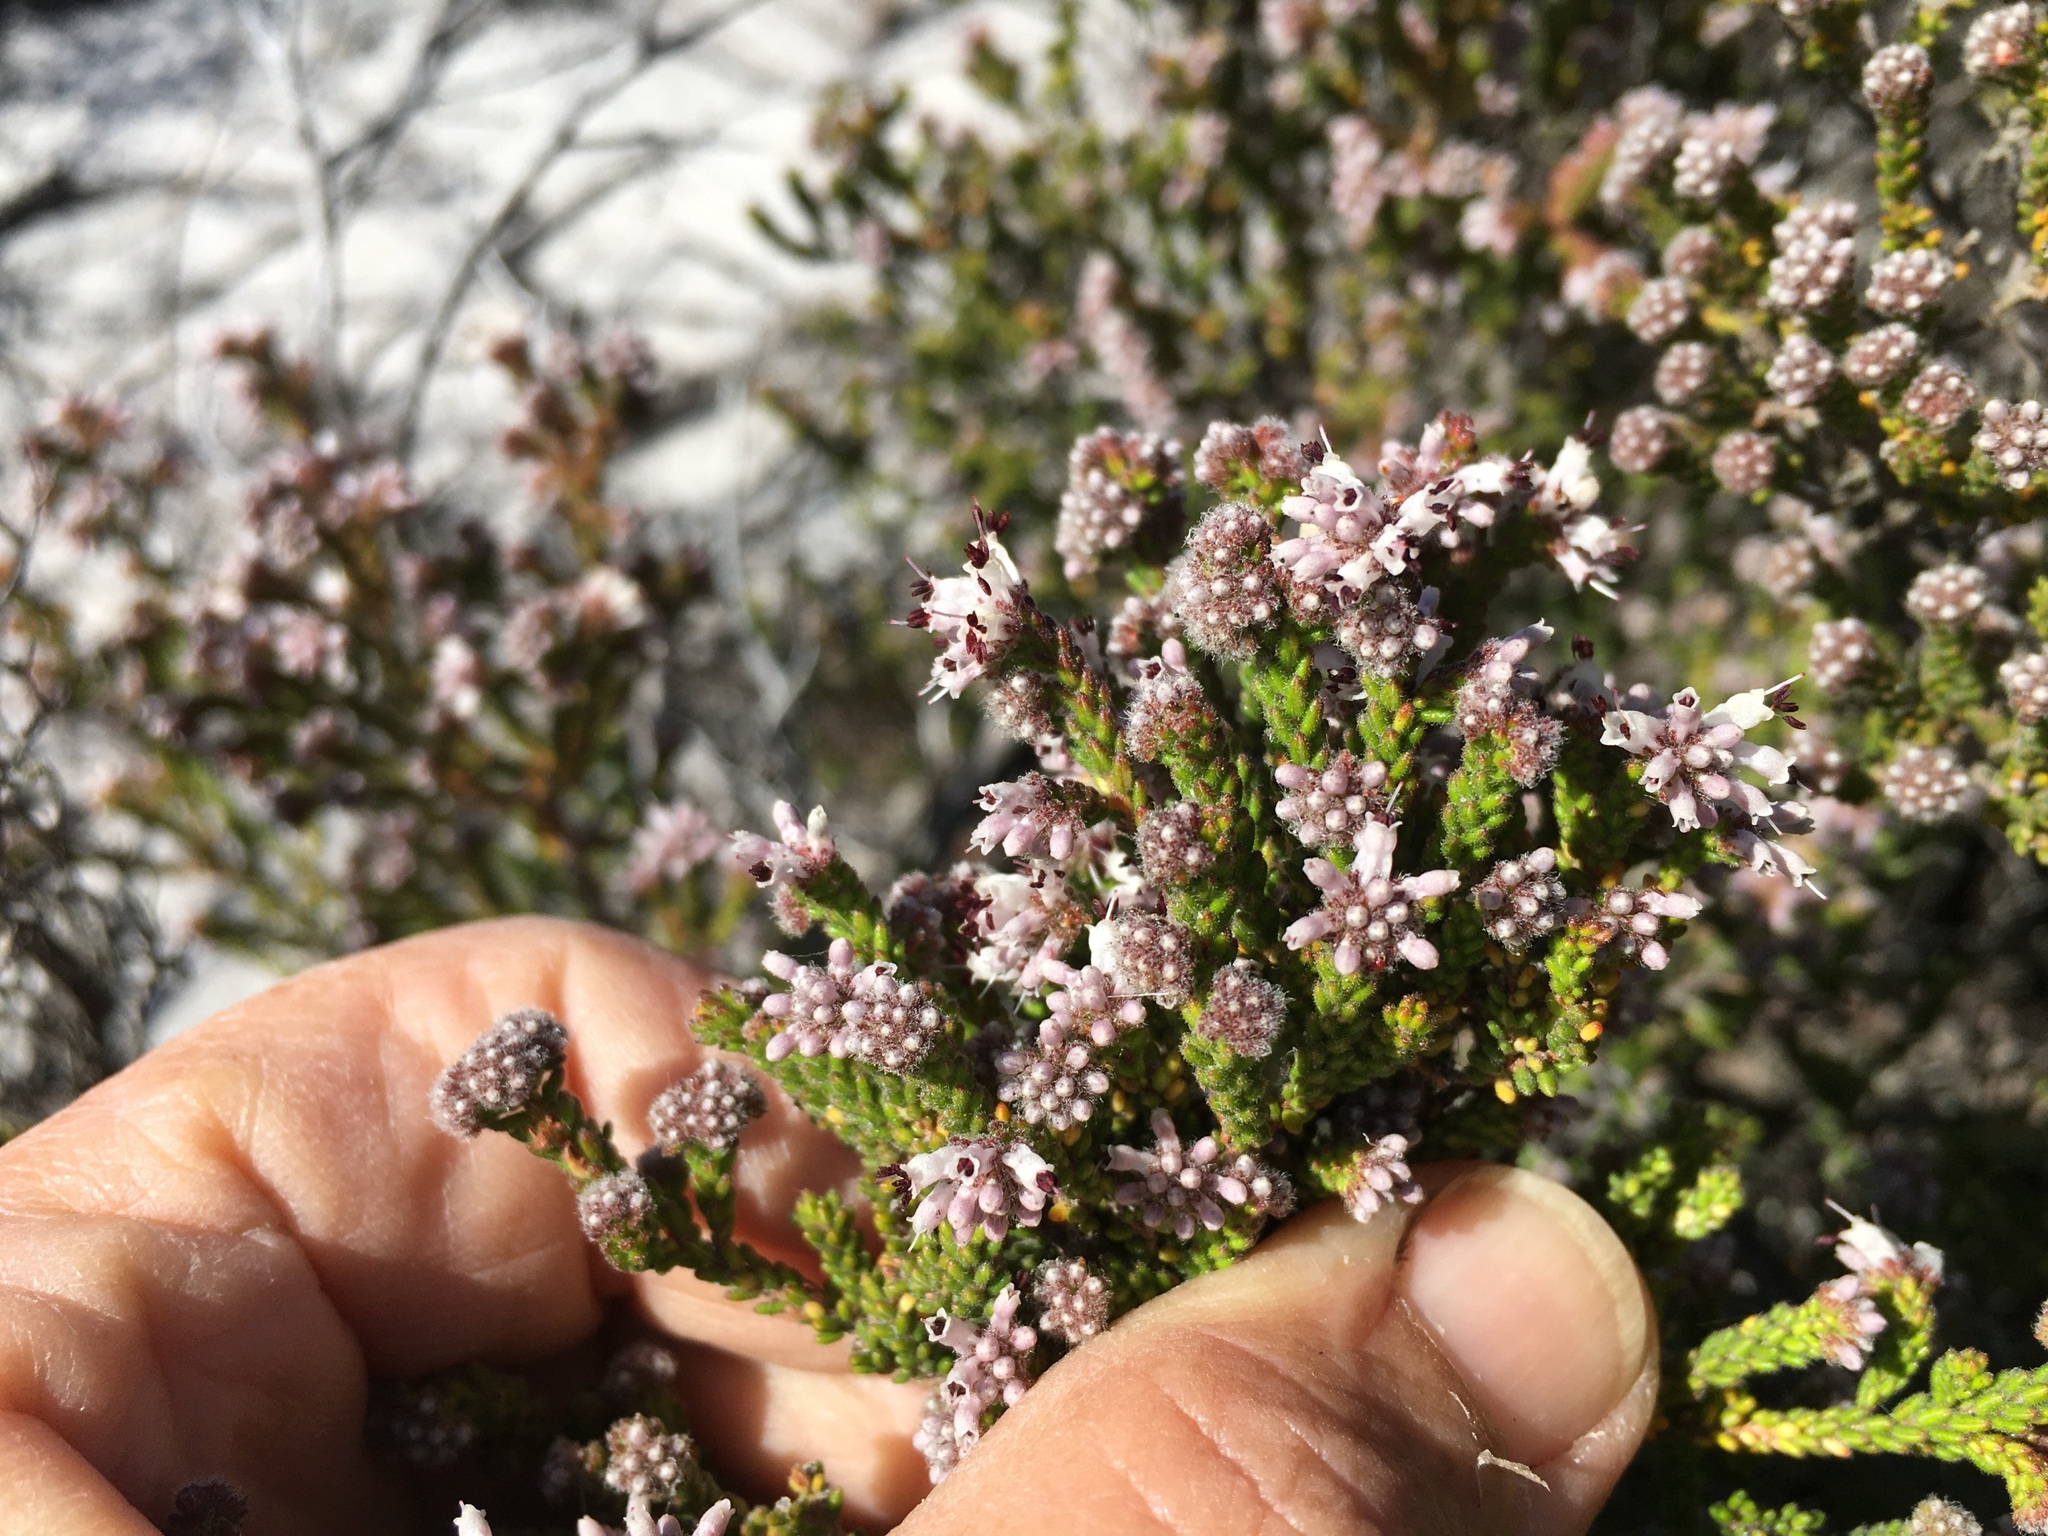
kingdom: Plantae
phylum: Tracheophyta
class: Magnoliopsida
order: Ericales
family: Ericaceae
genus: Erica
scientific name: Erica ericoides
